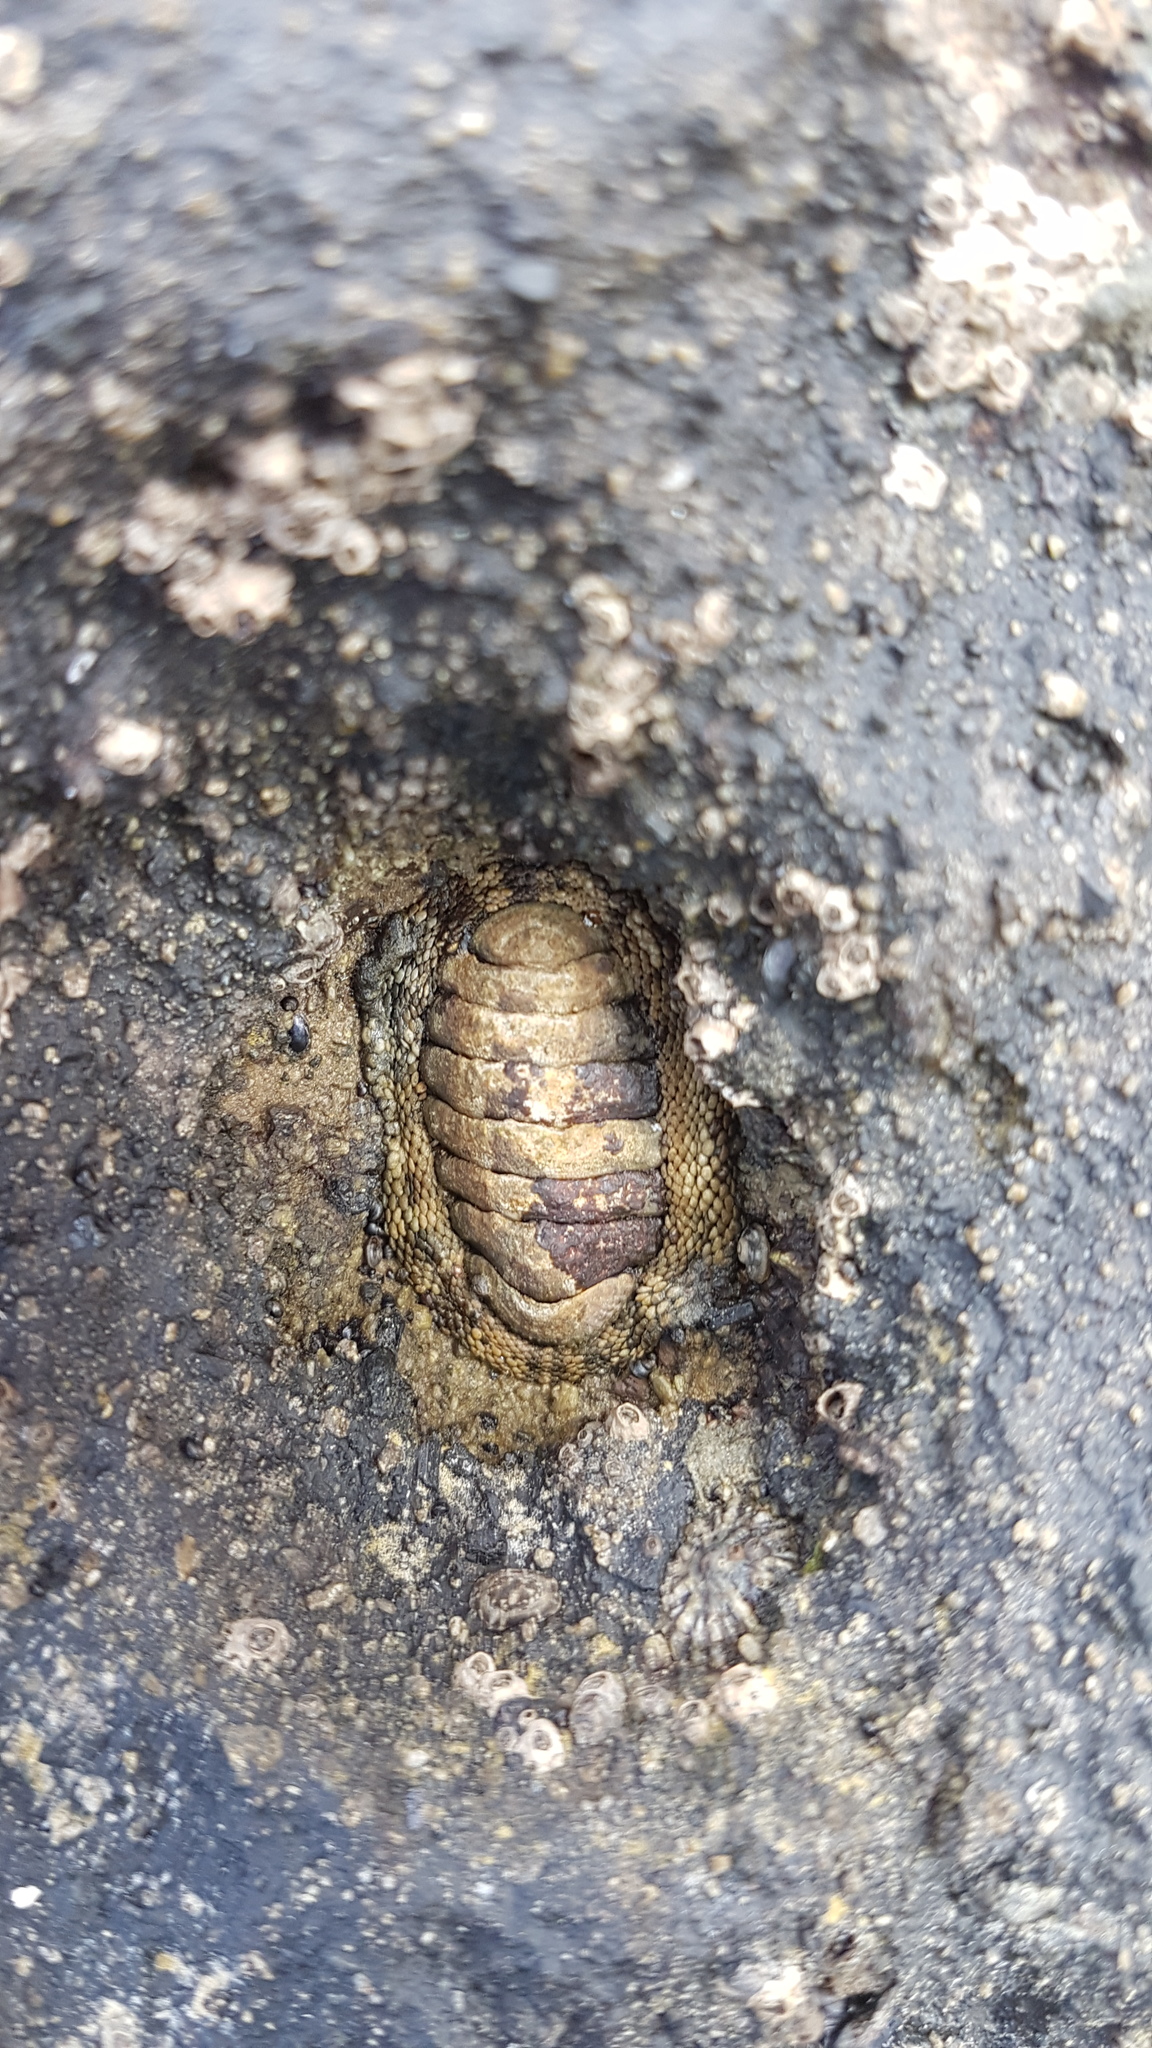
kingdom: Animalia
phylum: Mollusca
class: Polyplacophora
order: Chitonida
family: Chitonidae
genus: Sypharochiton
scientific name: Sypharochiton pelliserpentis
